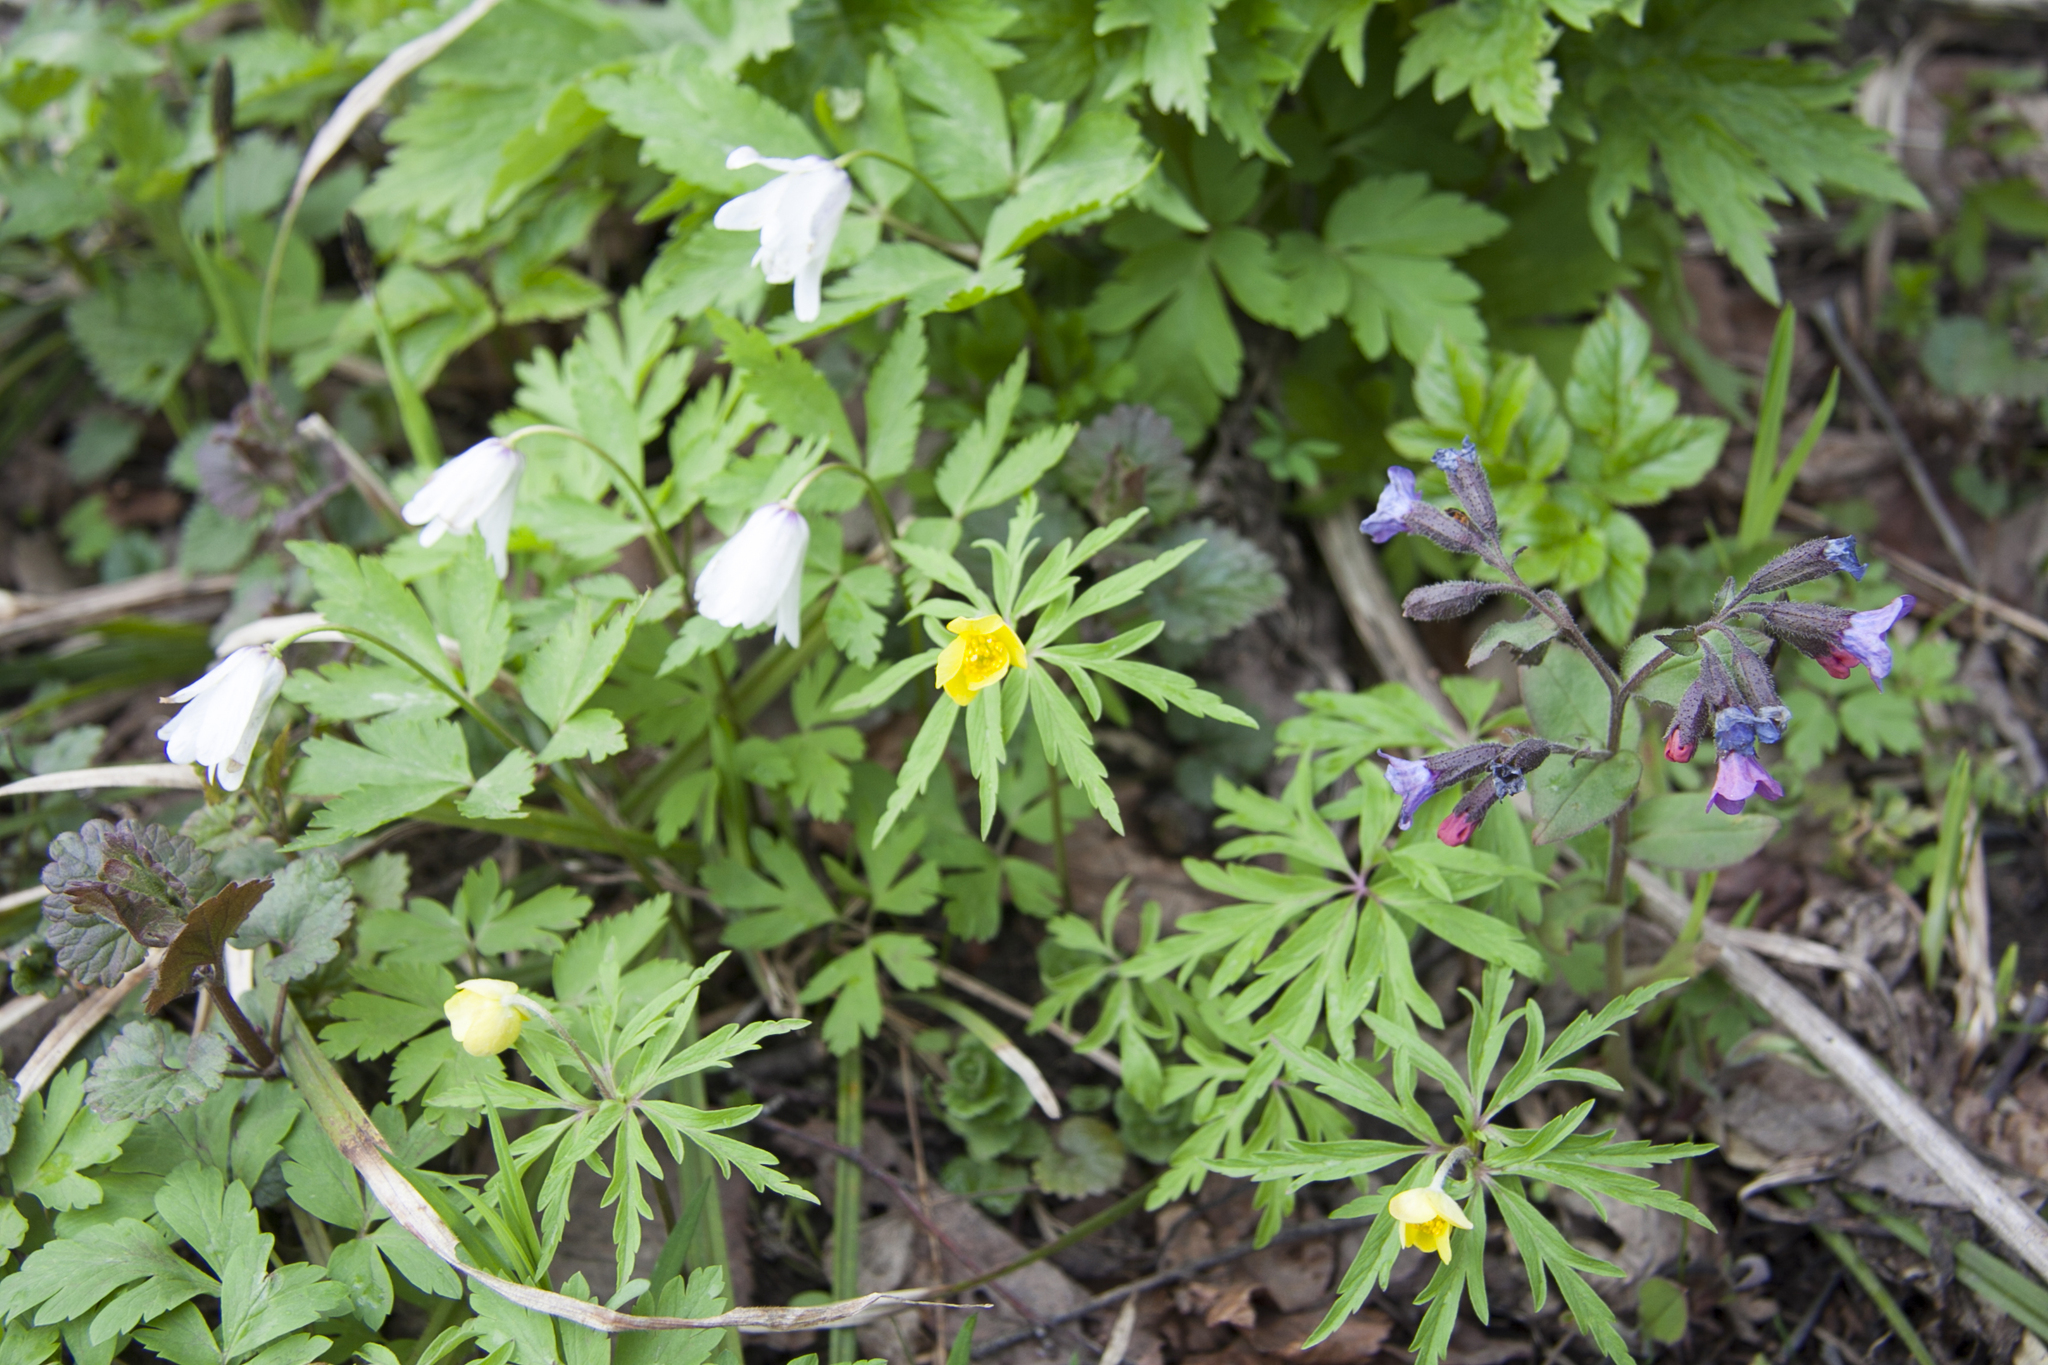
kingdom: Plantae
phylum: Tracheophyta
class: Magnoliopsida
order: Boraginales
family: Boraginaceae
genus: Pulmonaria
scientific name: Pulmonaria obscura
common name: Suffolk lungwort
